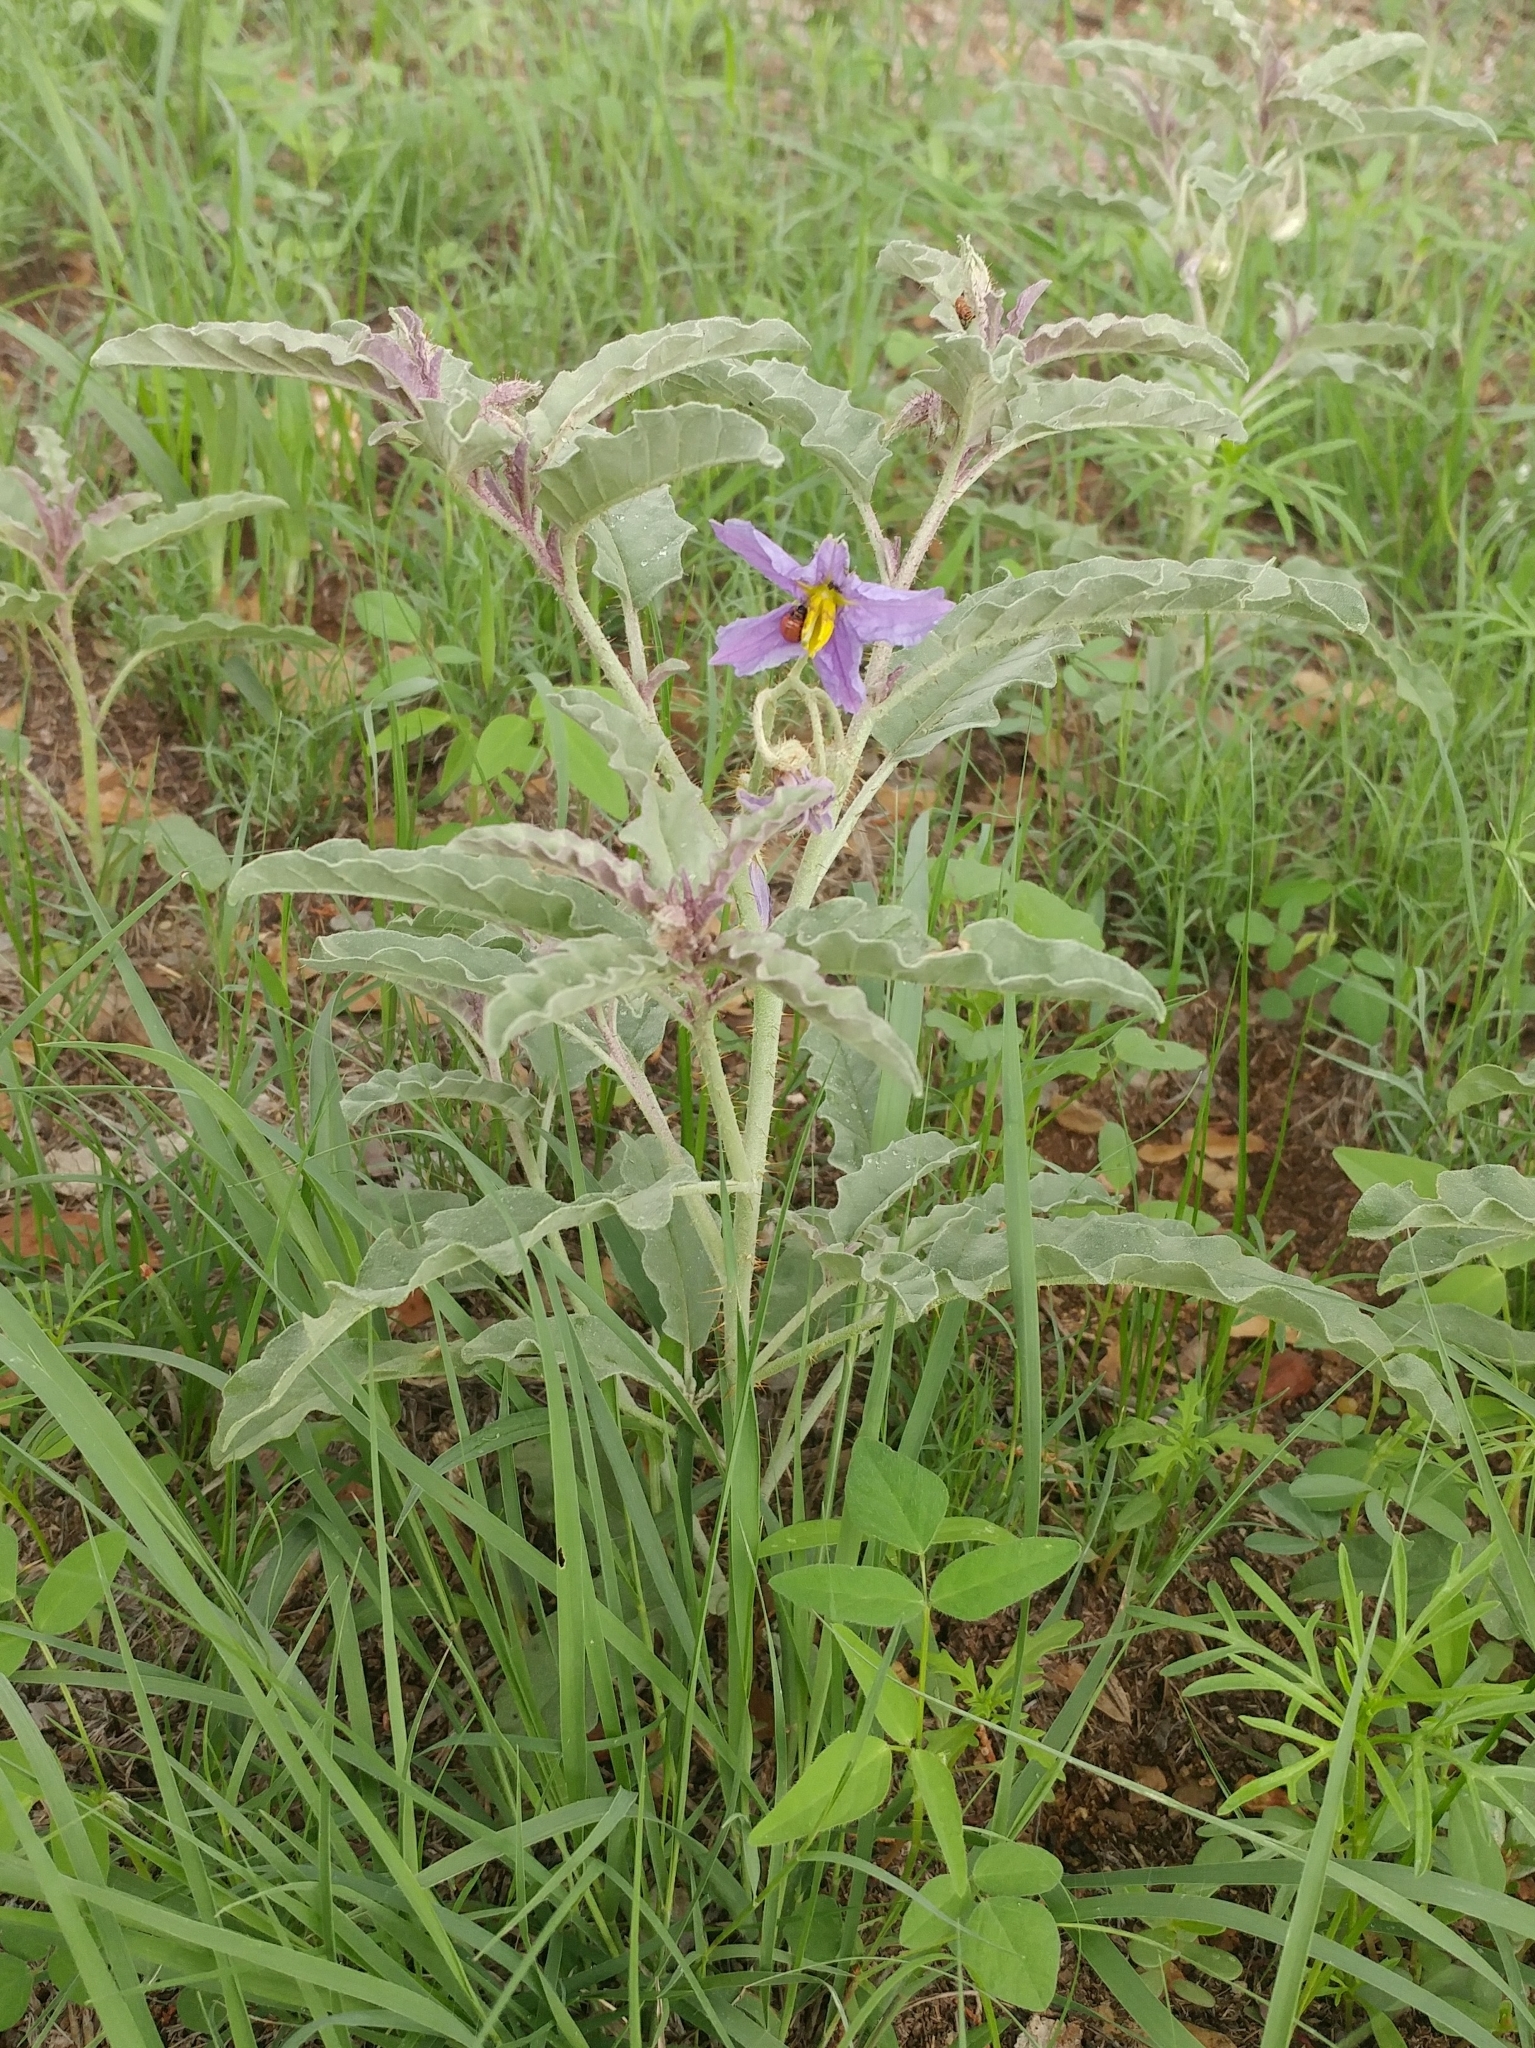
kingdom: Plantae
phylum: Tracheophyta
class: Magnoliopsida
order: Solanales
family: Solanaceae
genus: Solanum
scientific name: Solanum elaeagnifolium
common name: Silverleaf nightshade
